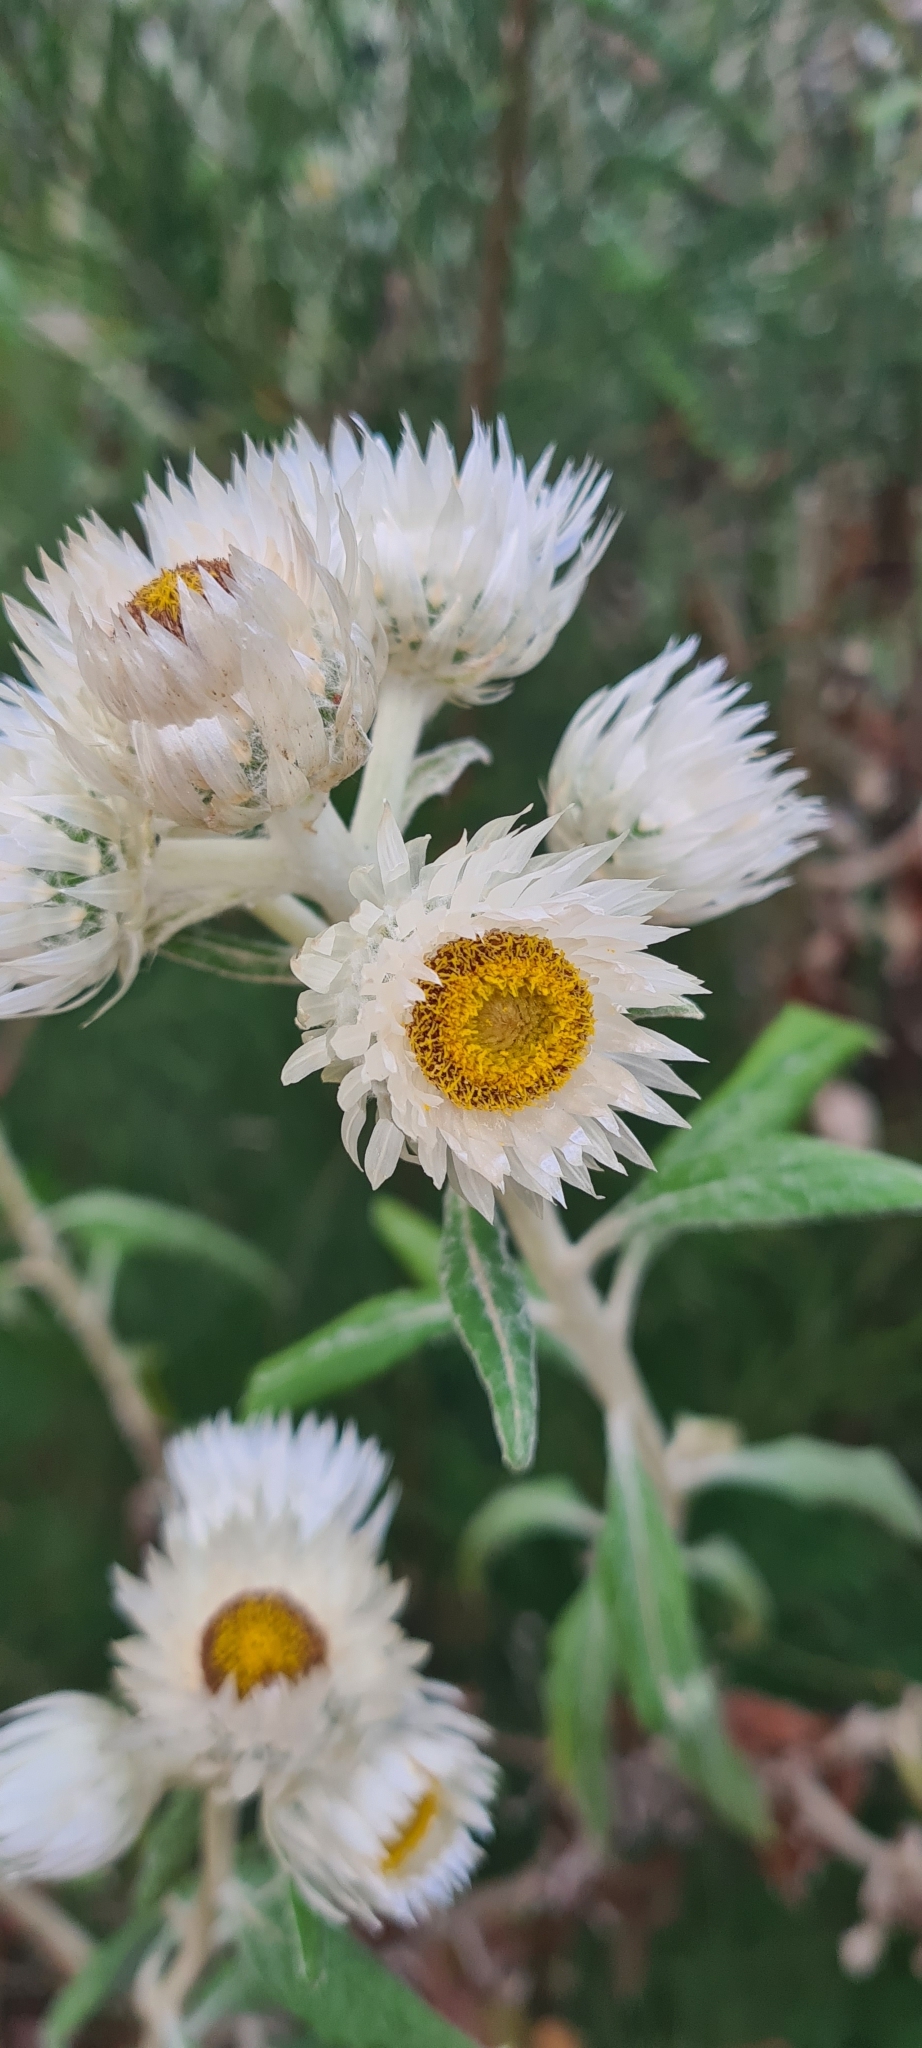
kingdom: Plantae
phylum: Tracheophyta
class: Magnoliopsida
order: Asterales
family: Asteraceae
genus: Leucozoma
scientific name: Leucozoma elatum
